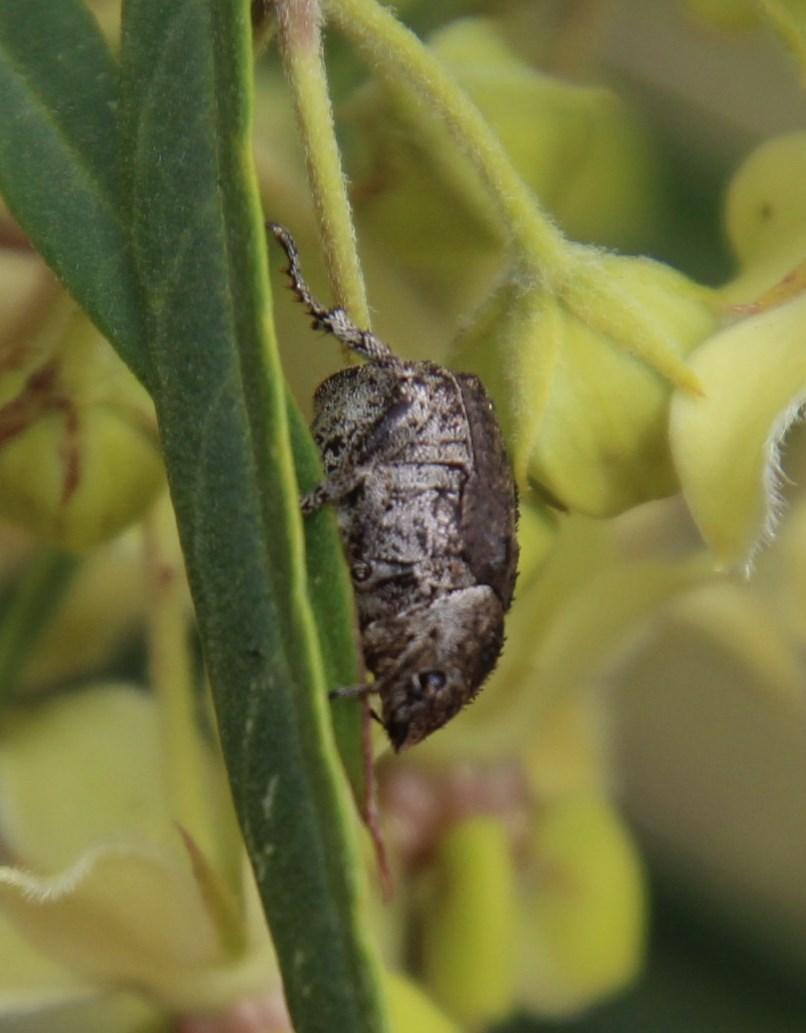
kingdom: Animalia
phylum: Arthropoda
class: Insecta
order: Coleoptera
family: Scarabaeidae
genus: Hoplia
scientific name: Hoplia sordida
